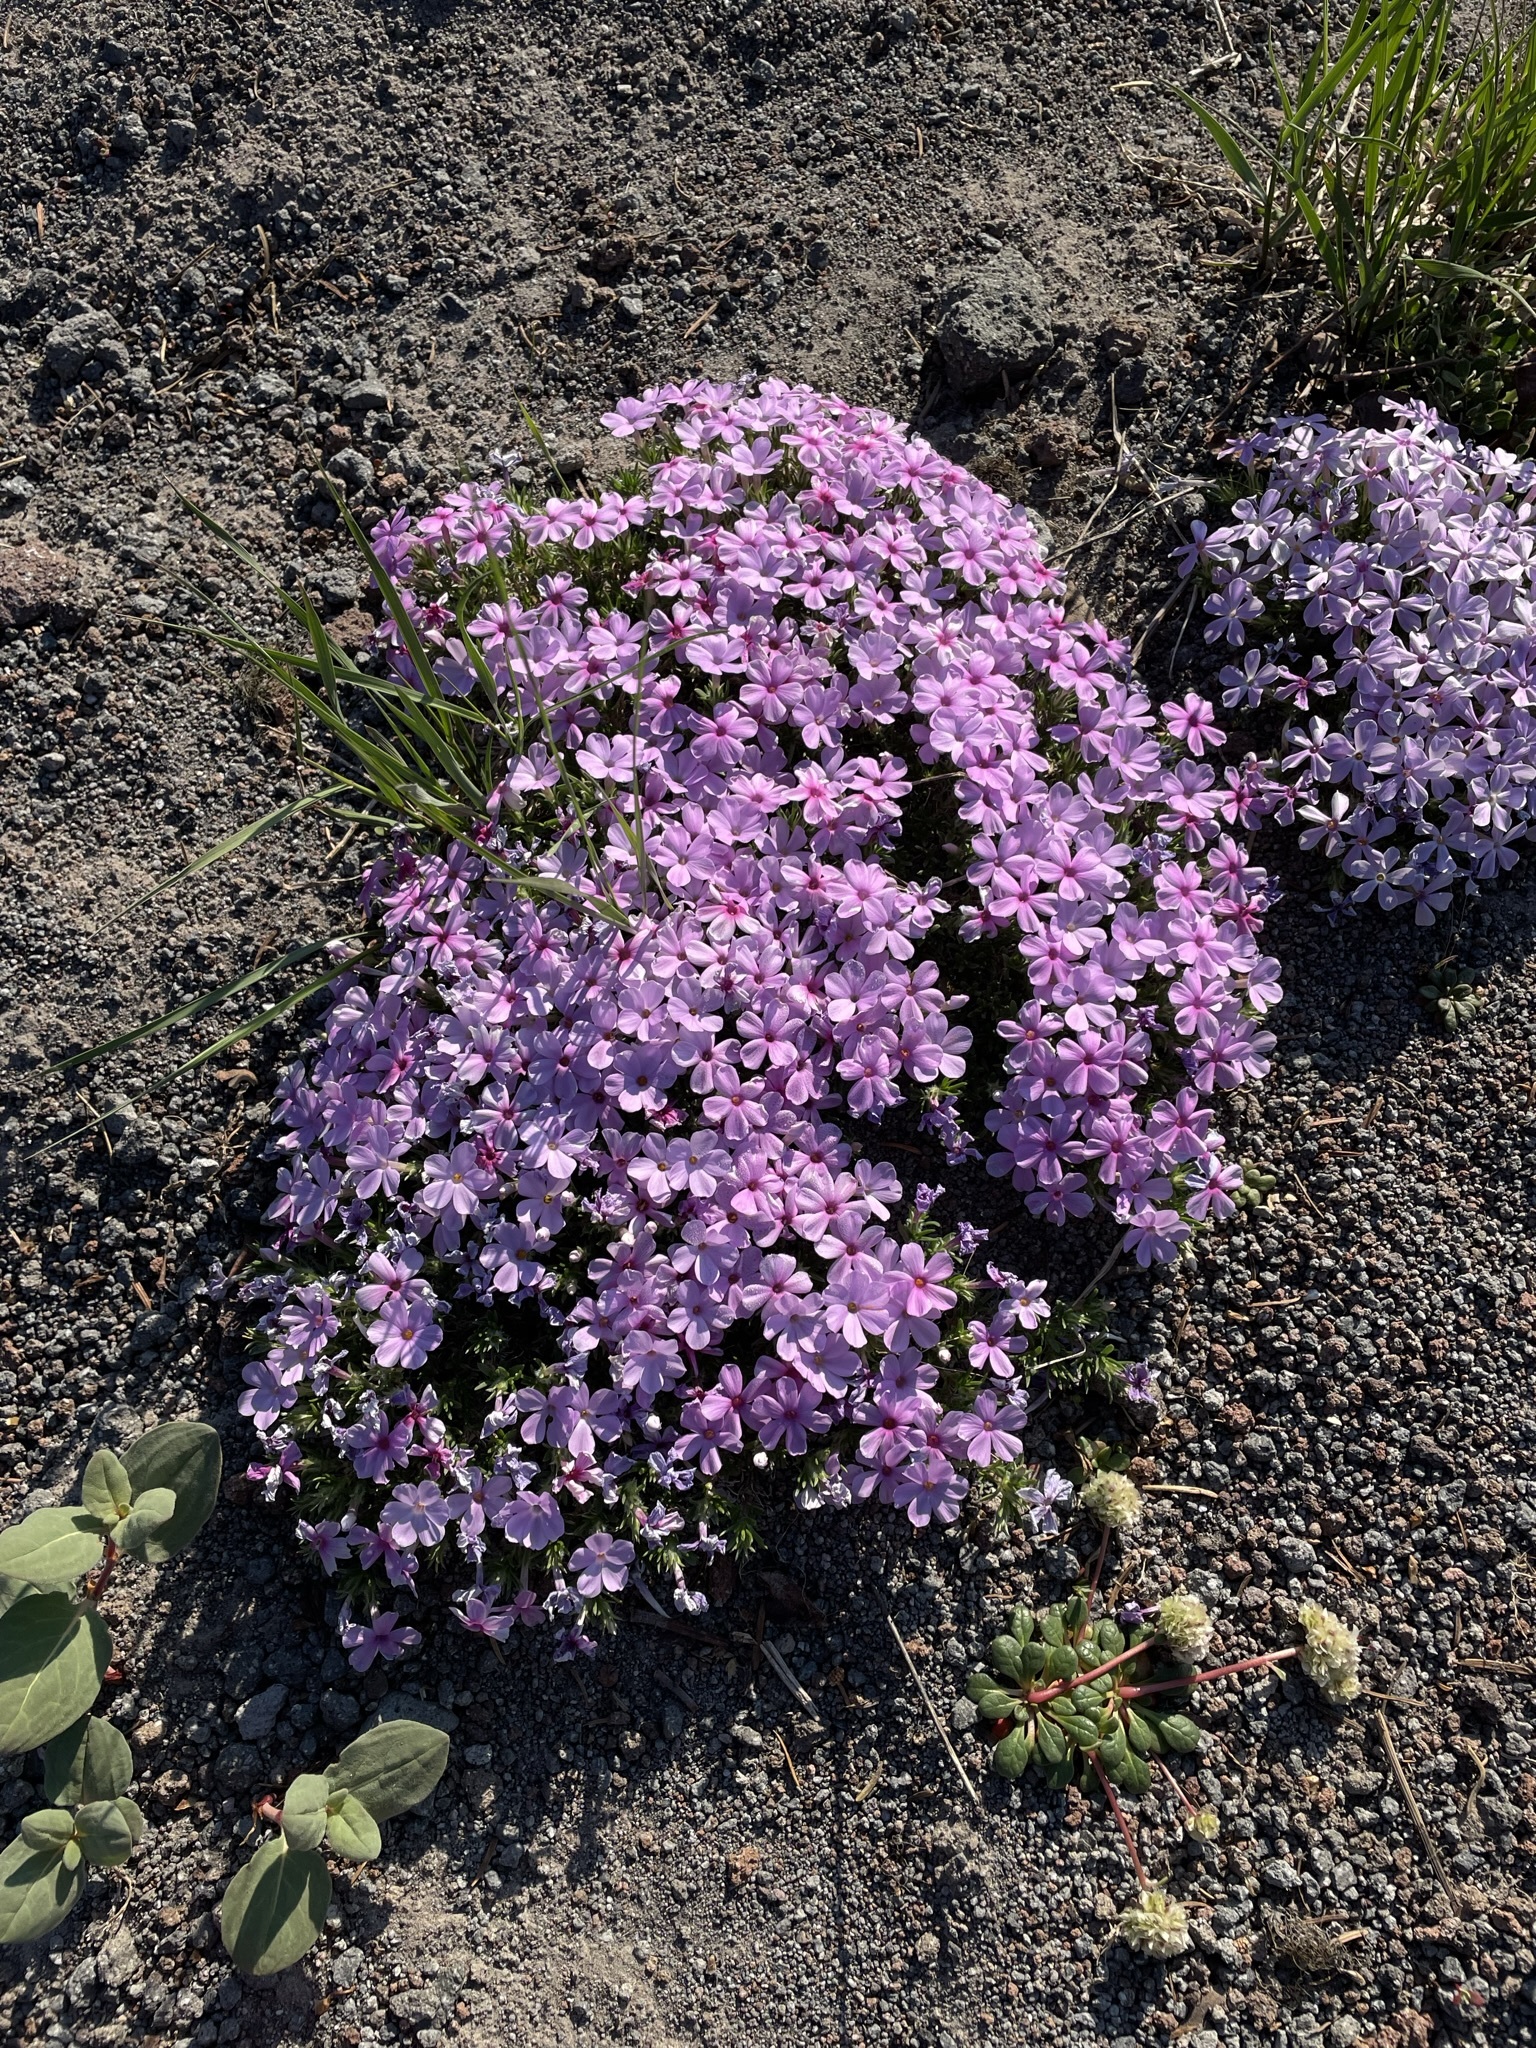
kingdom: Plantae
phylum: Tracheophyta
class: Magnoliopsida
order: Ericales
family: Polemoniaceae
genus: Phlox
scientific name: Phlox diffusa
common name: Mat phlox
